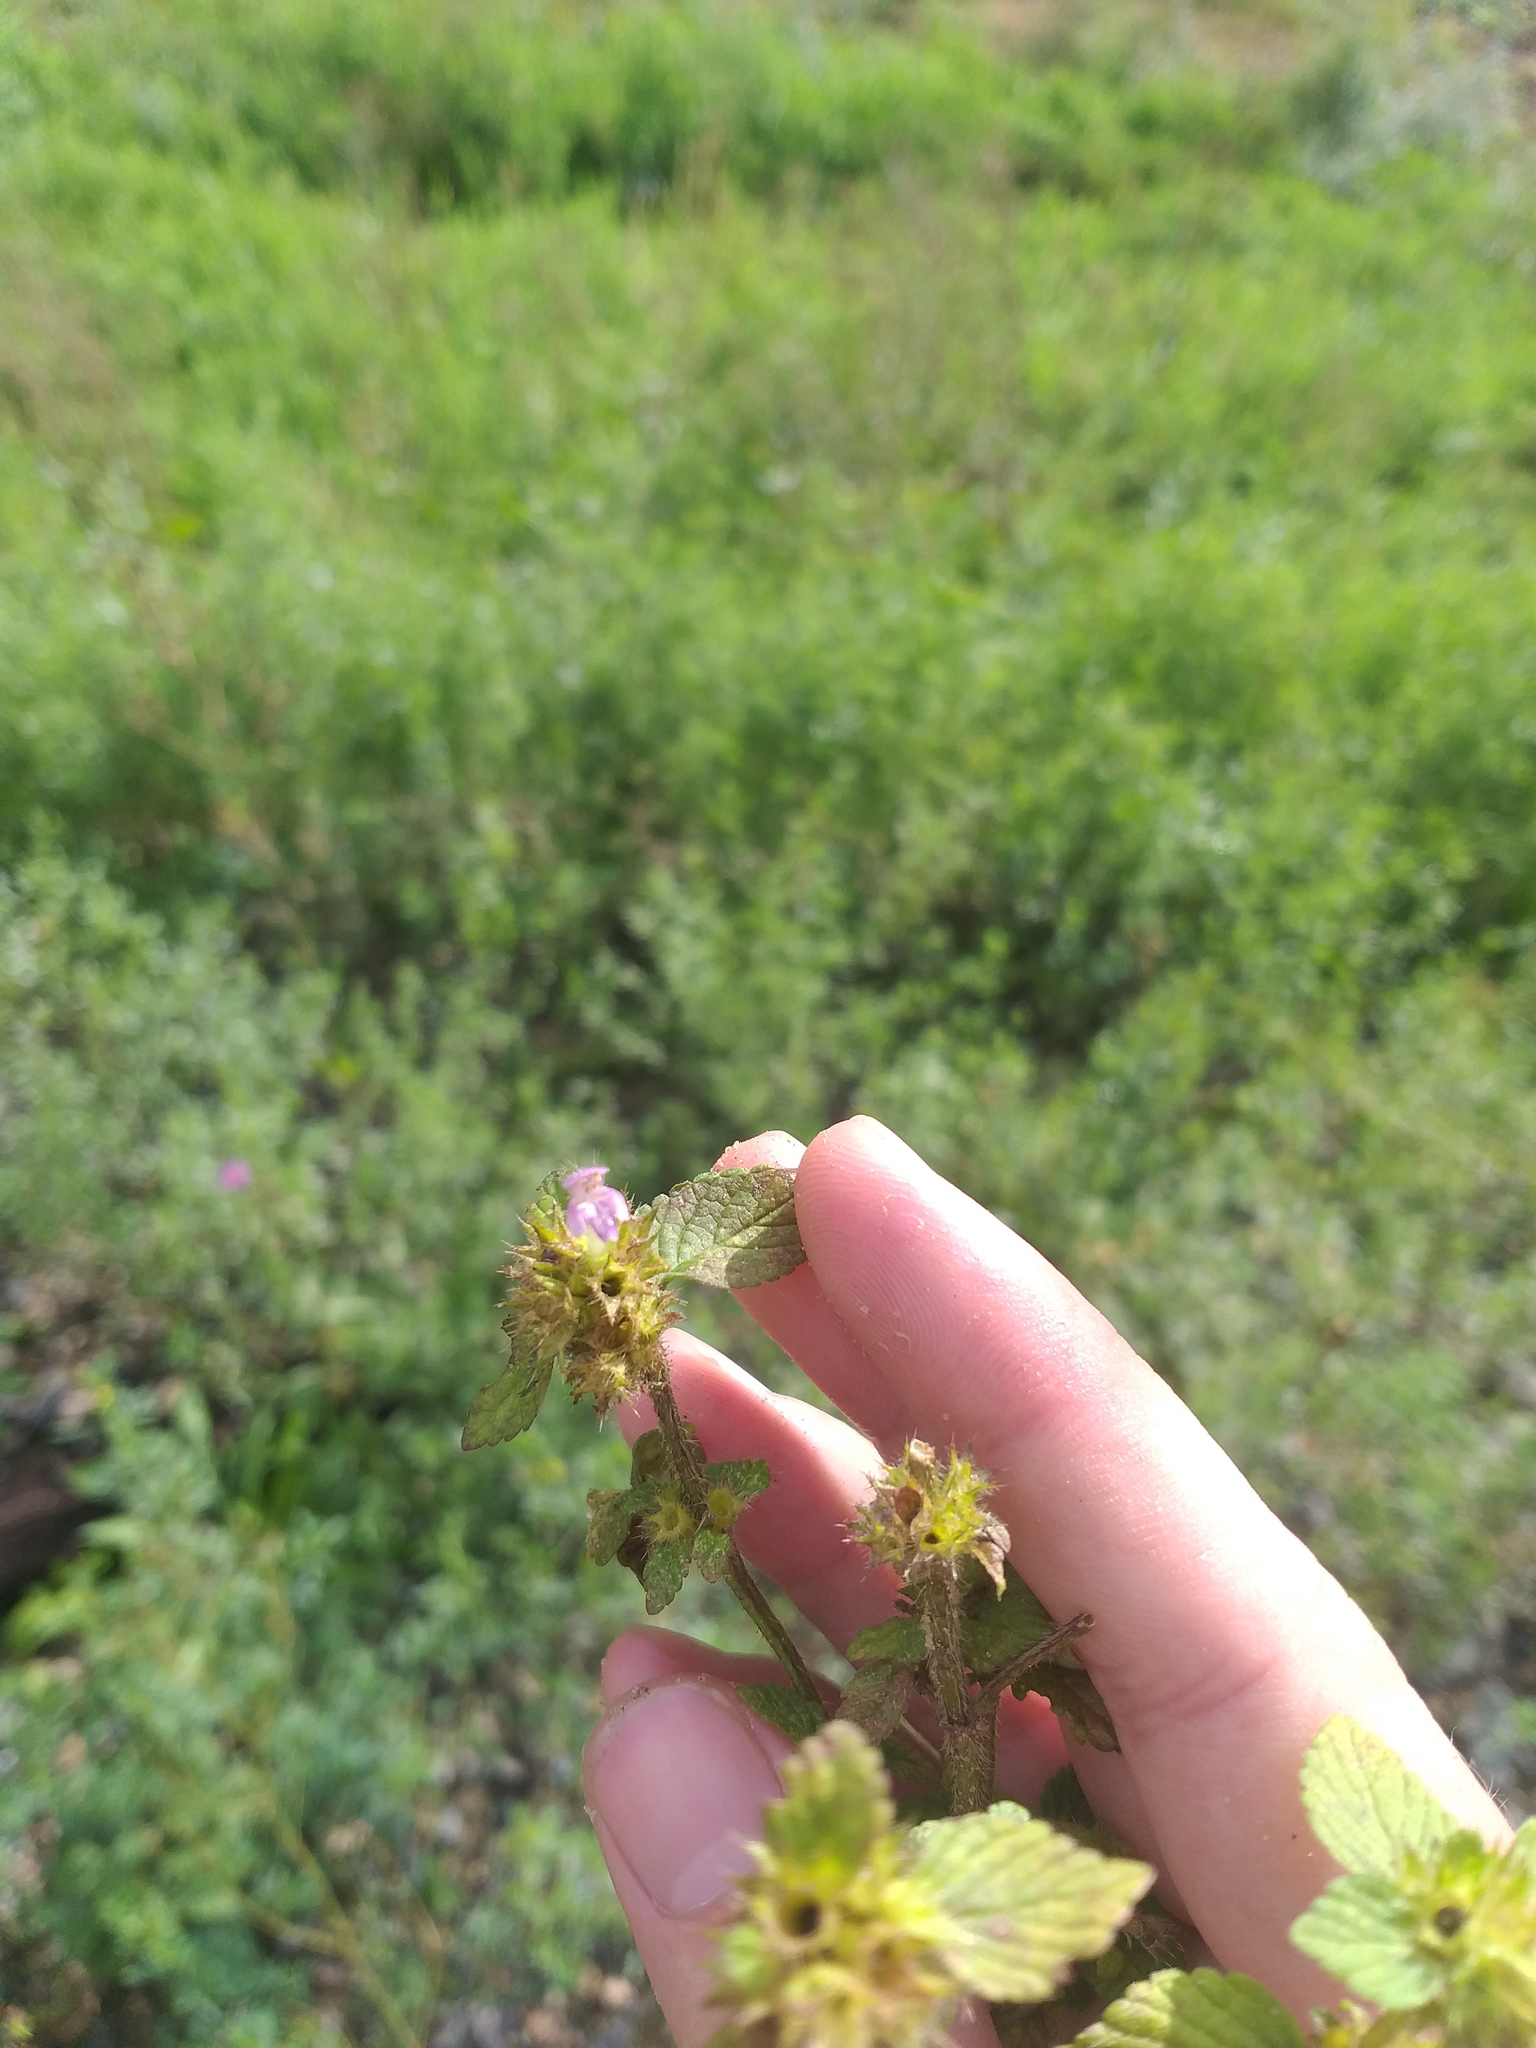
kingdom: Plantae
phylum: Tracheophyta
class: Magnoliopsida
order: Lamiales
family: Lamiaceae
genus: Galeopsis
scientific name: Galeopsis bifida
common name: Bifid hemp-nettle
